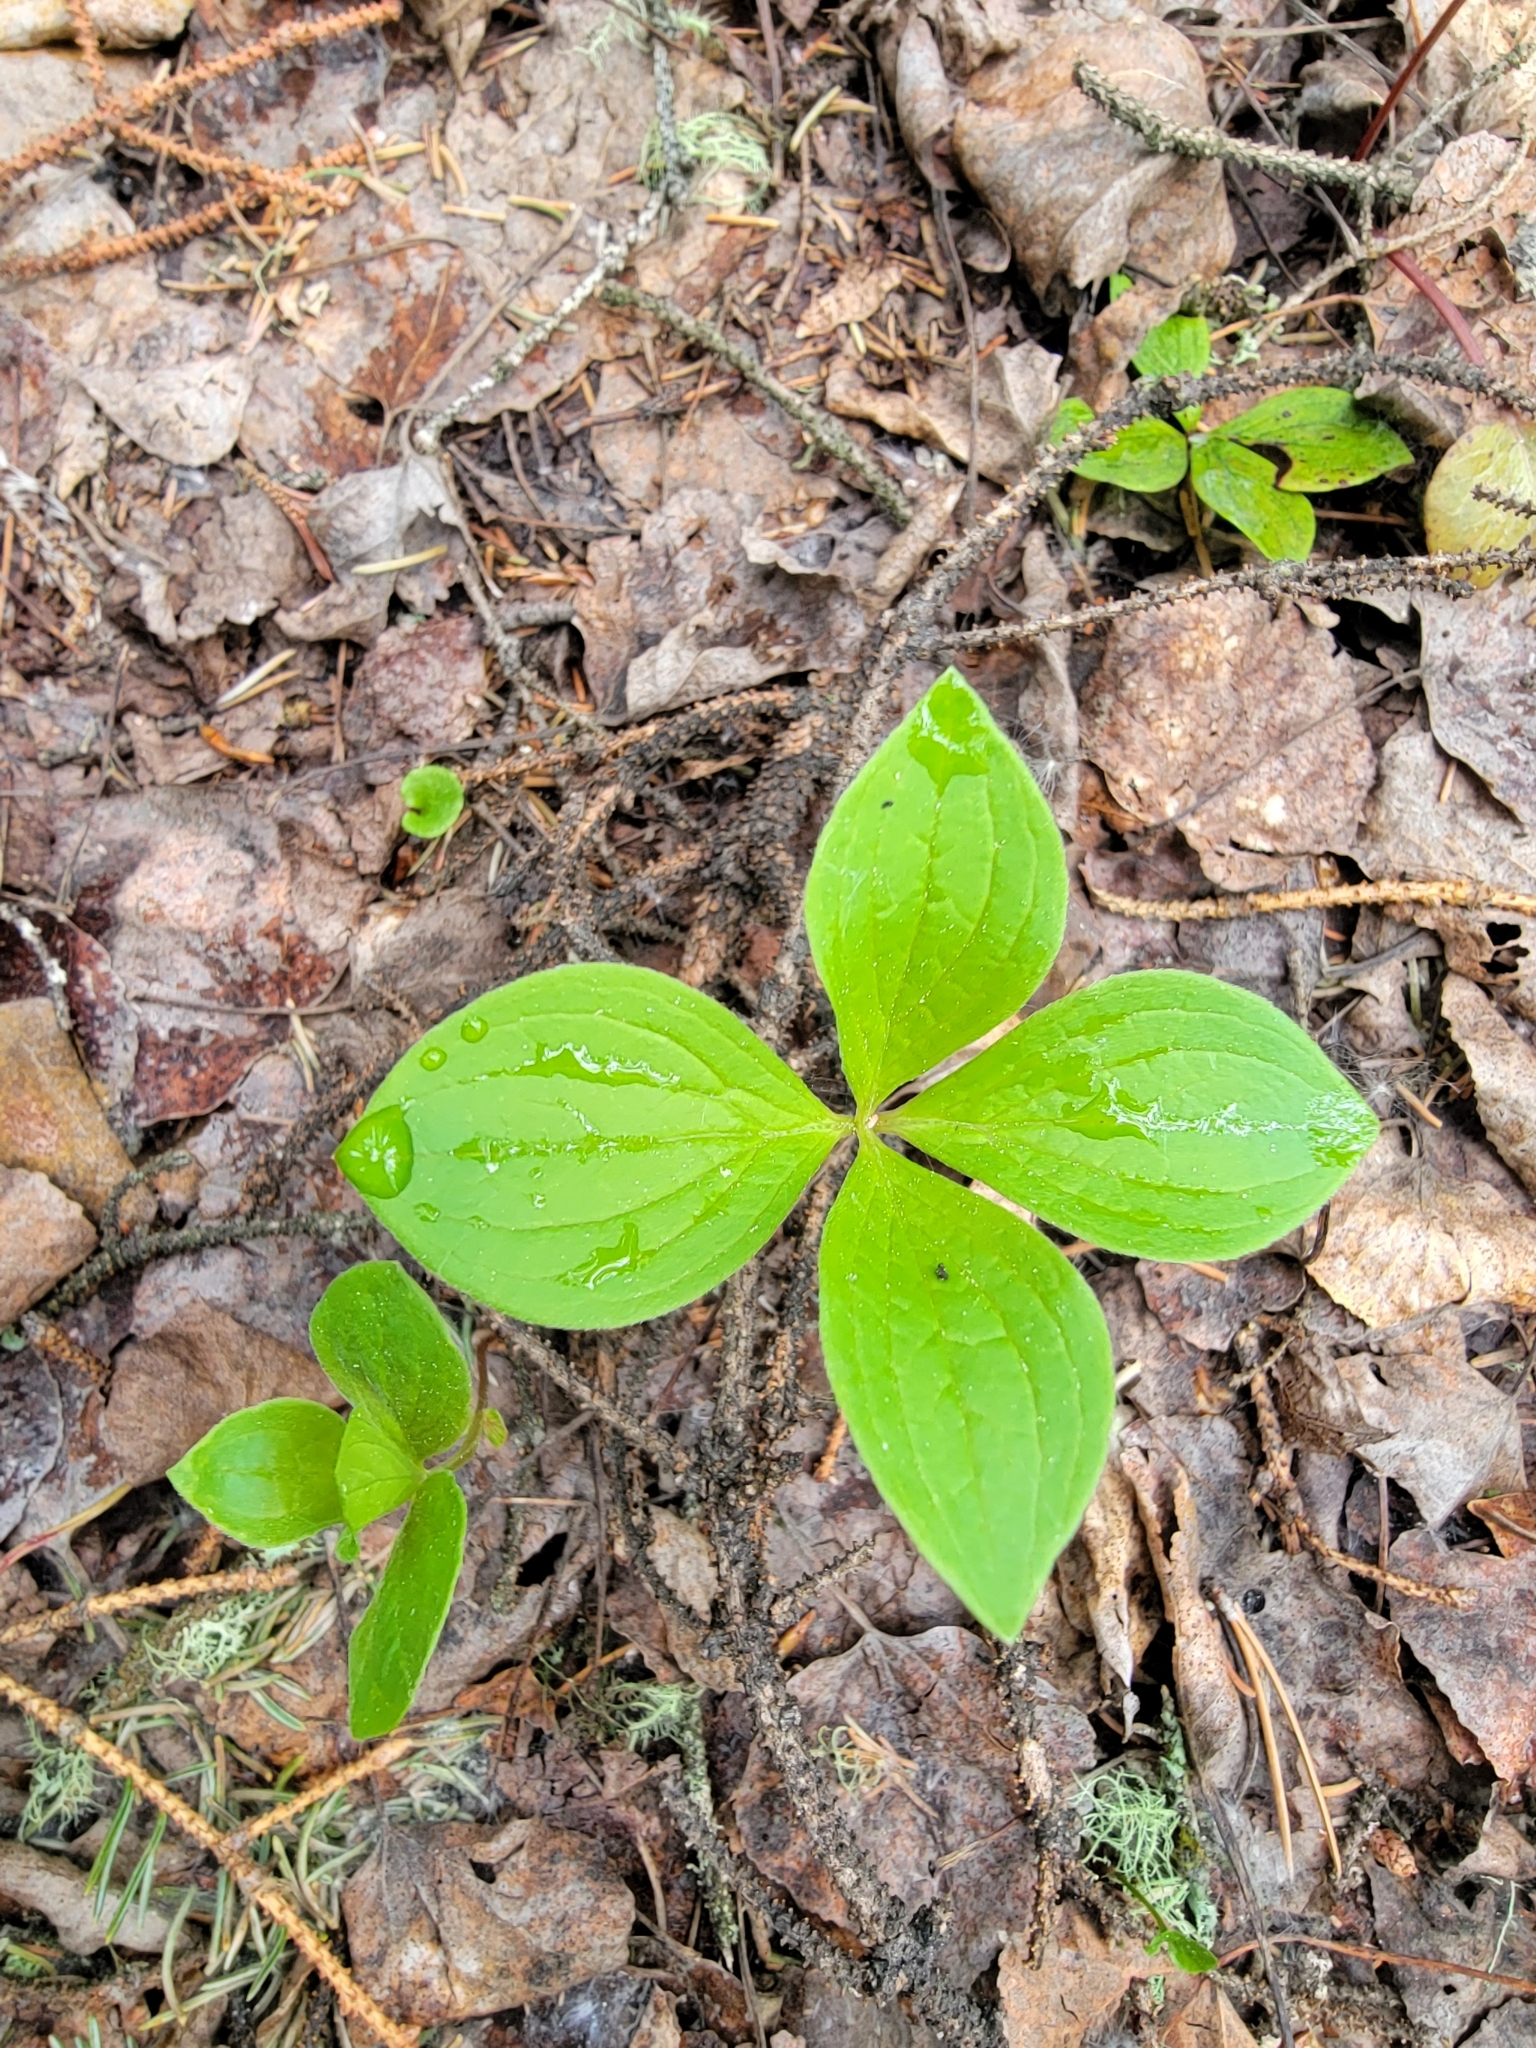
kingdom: Plantae
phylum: Tracheophyta
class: Magnoliopsida
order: Cornales
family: Cornaceae
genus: Cornus
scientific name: Cornus canadensis
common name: Creeping dogwood
